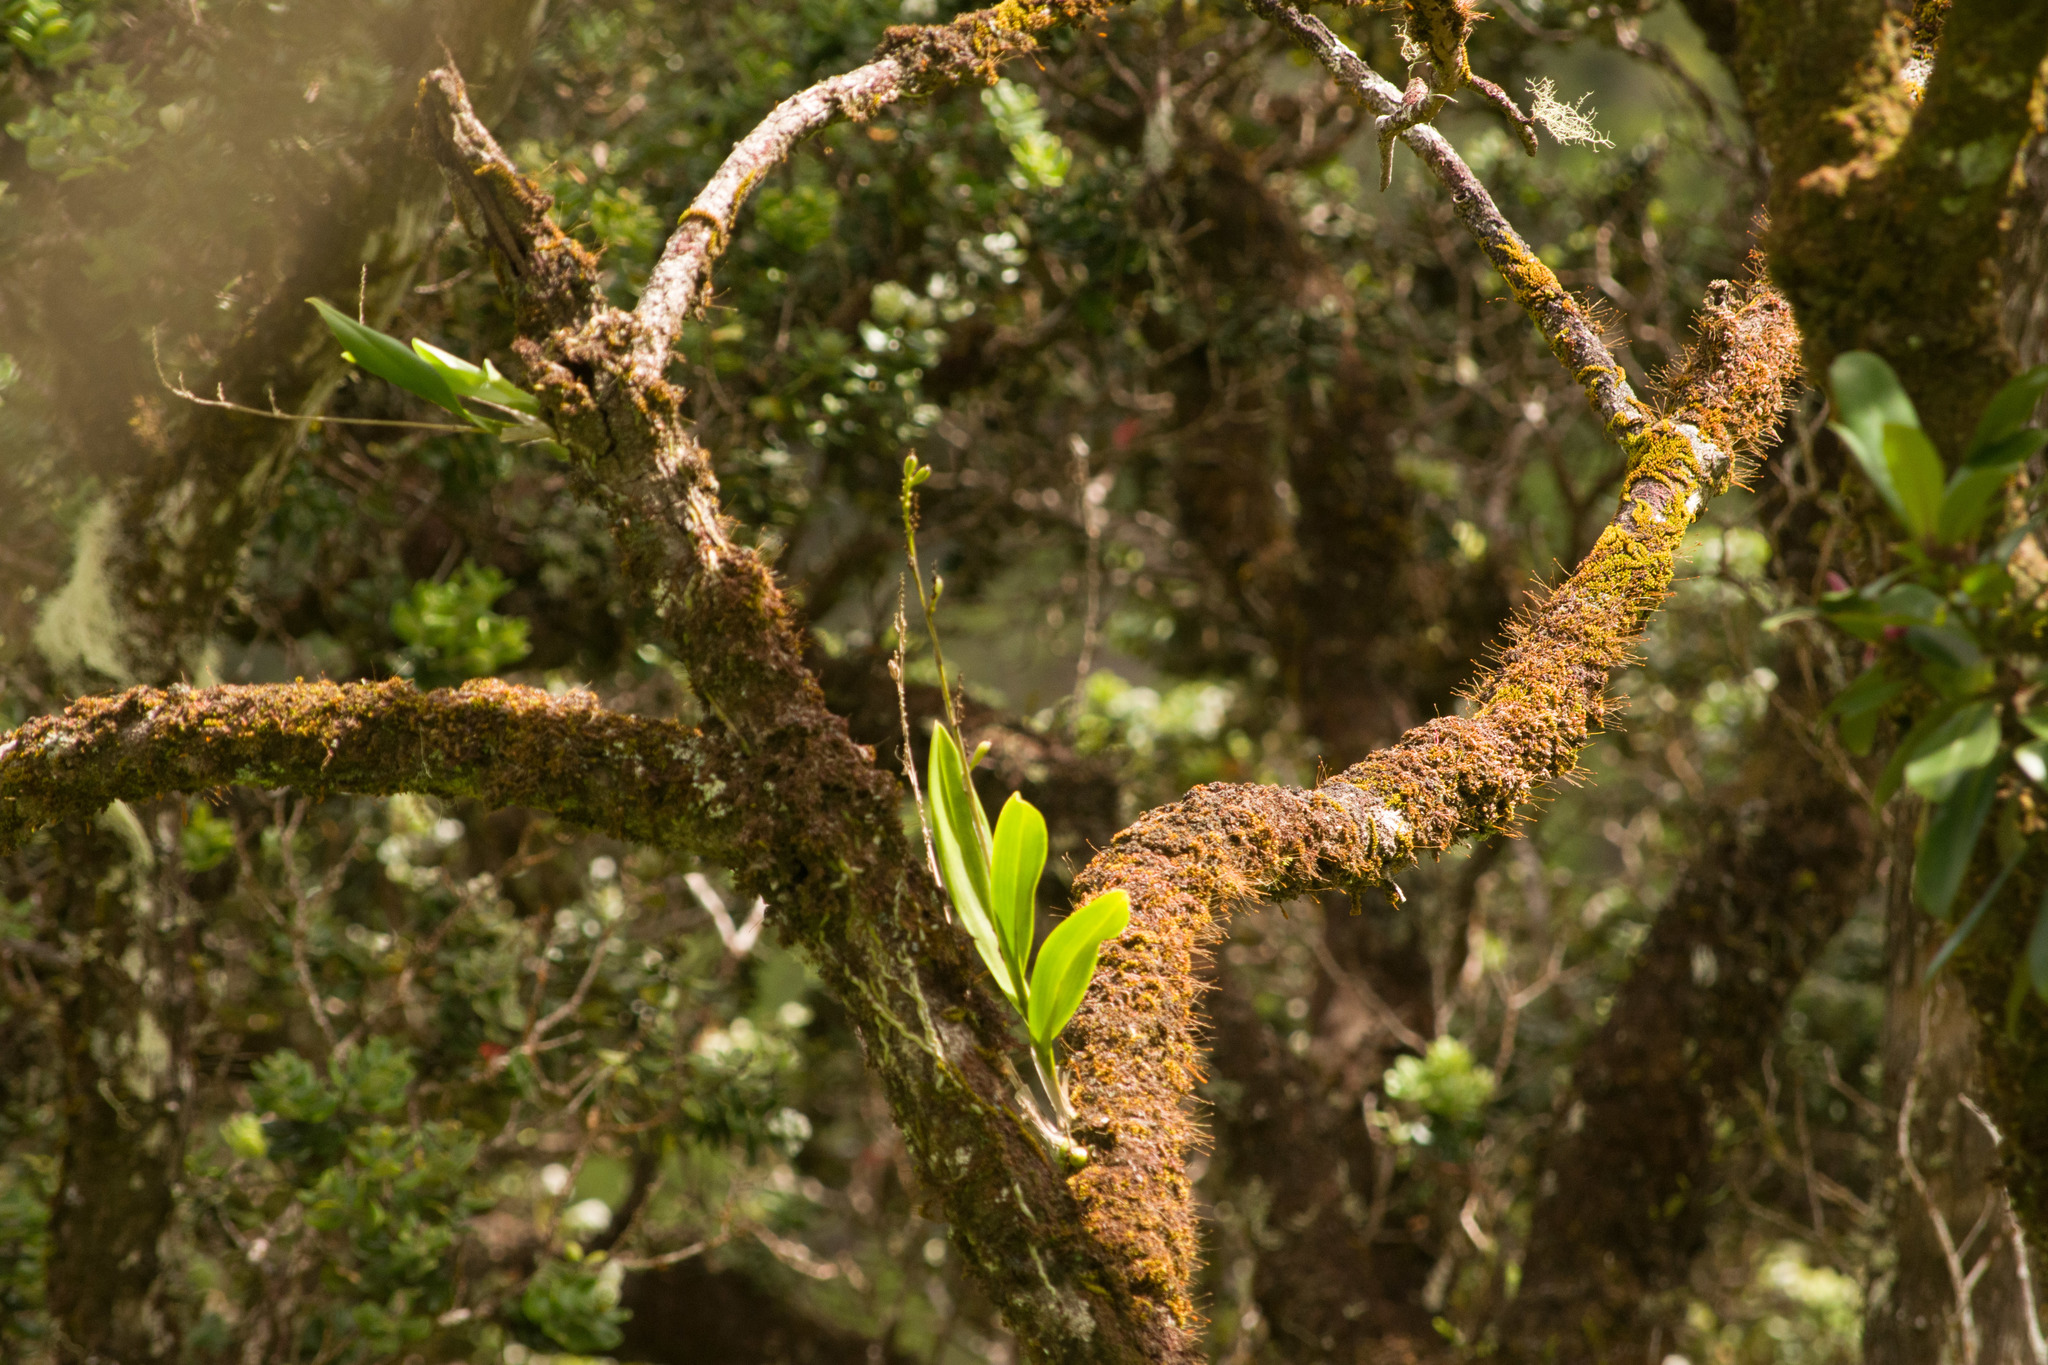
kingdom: Plantae
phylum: Tracheophyta
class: Liliopsida
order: Asparagales
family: Orchidaceae
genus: Polystachya
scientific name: Polystachya concreta
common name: Greater yellowspike orchid
